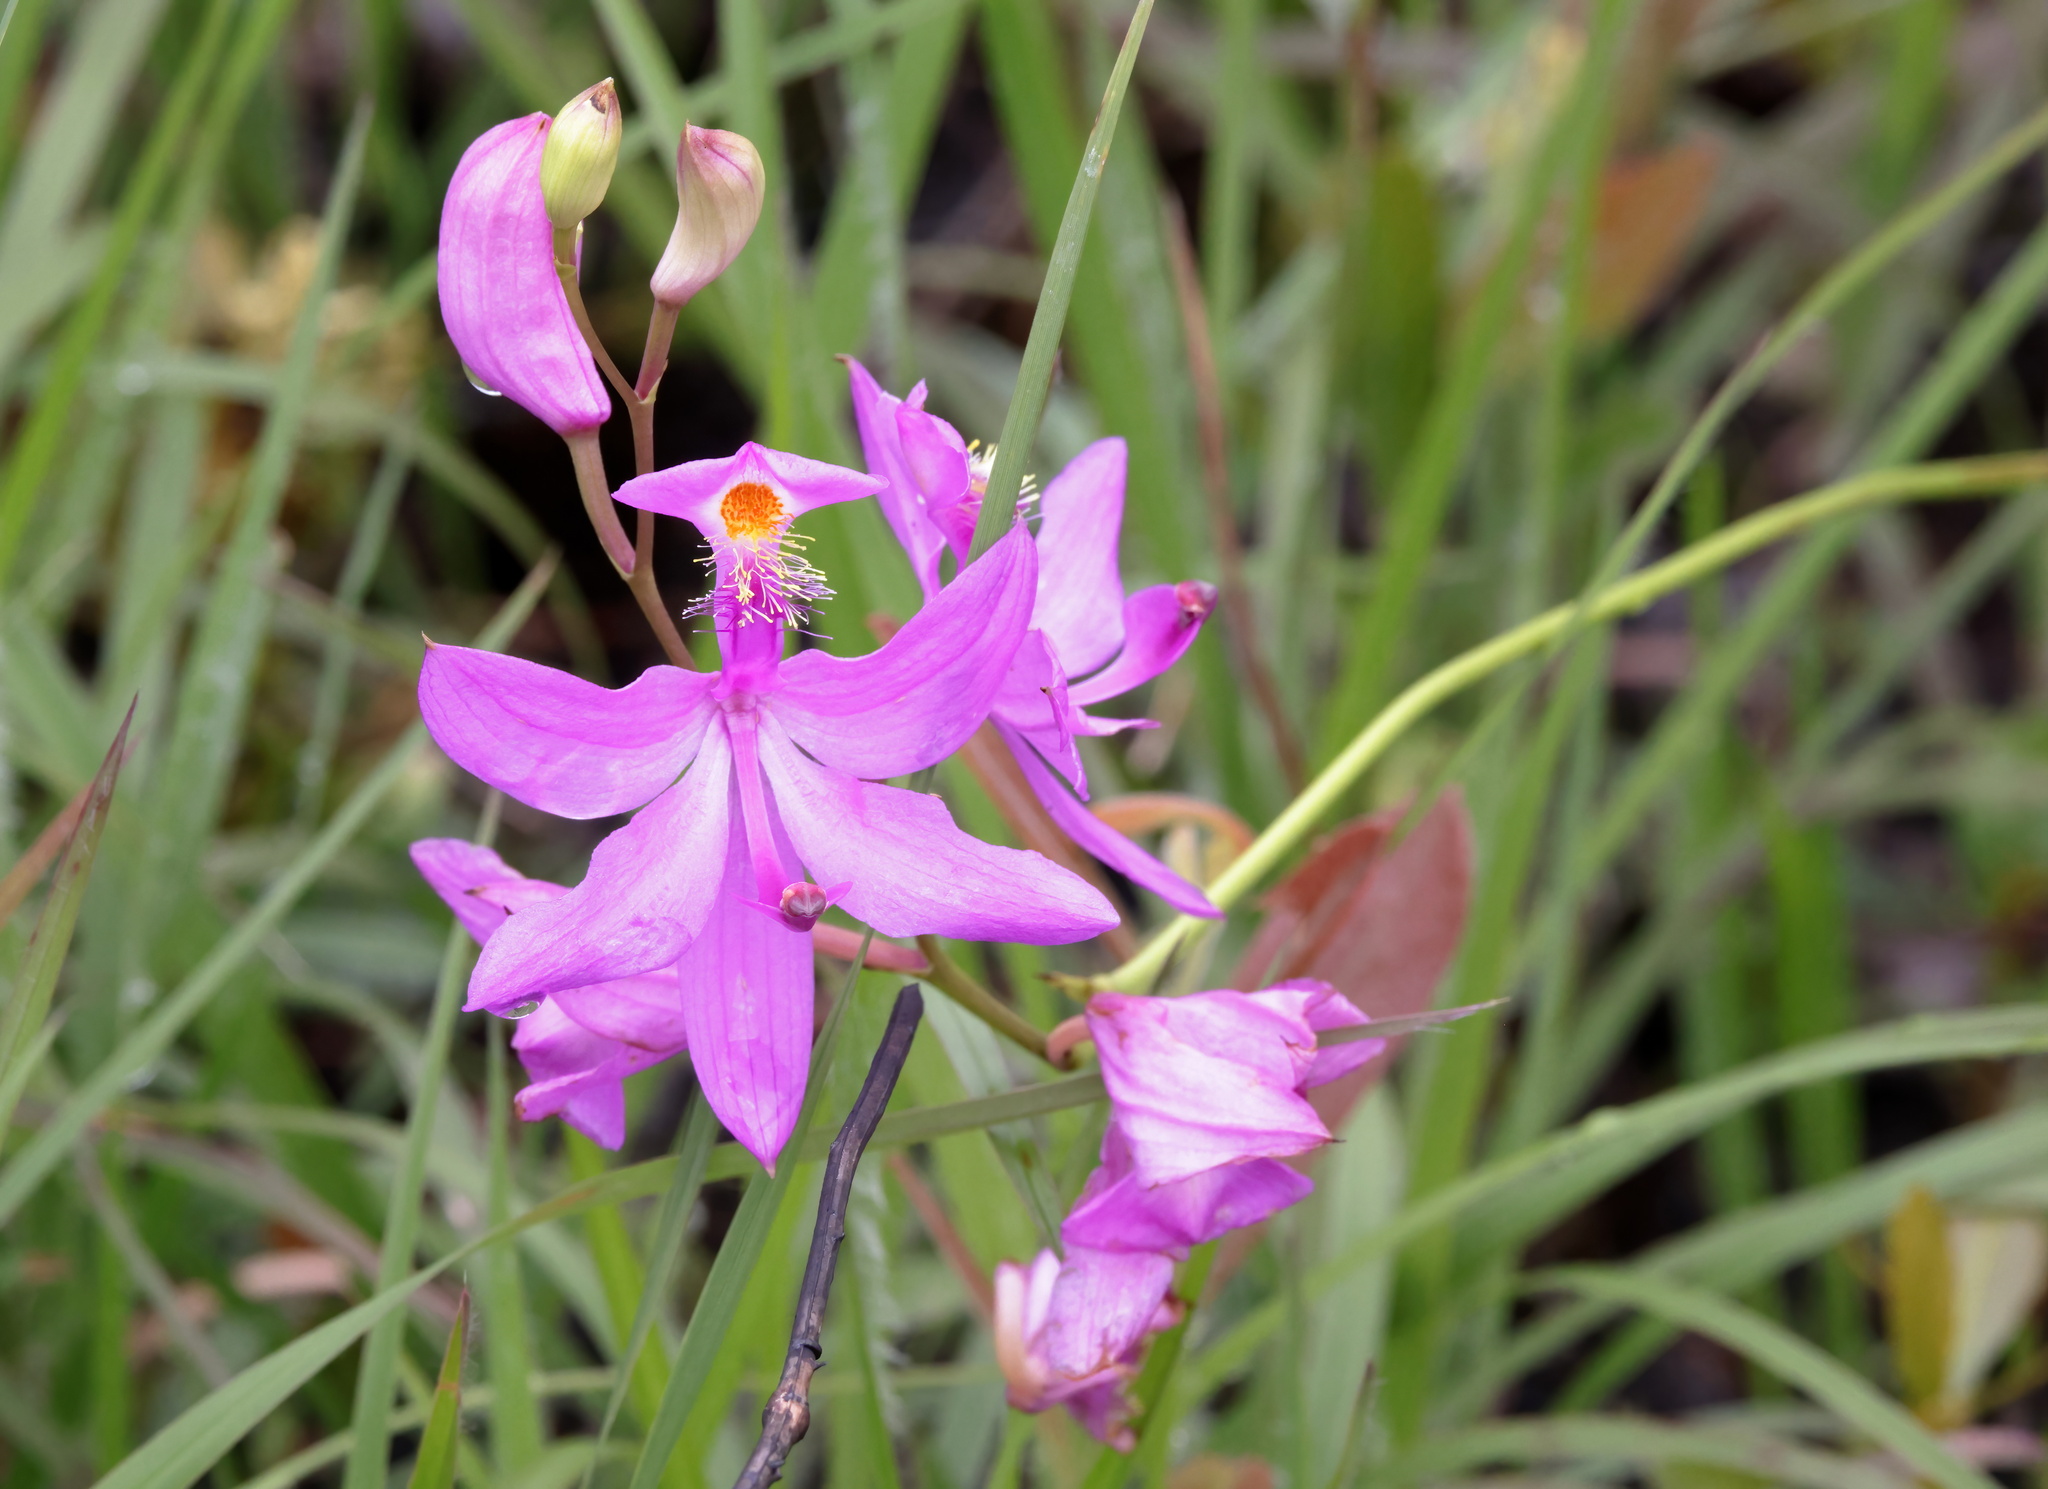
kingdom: Plantae
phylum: Tracheophyta
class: Liliopsida
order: Asparagales
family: Orchidaceae
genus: Calopogon
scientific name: Calopogon tuberosus
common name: Grass-pink
